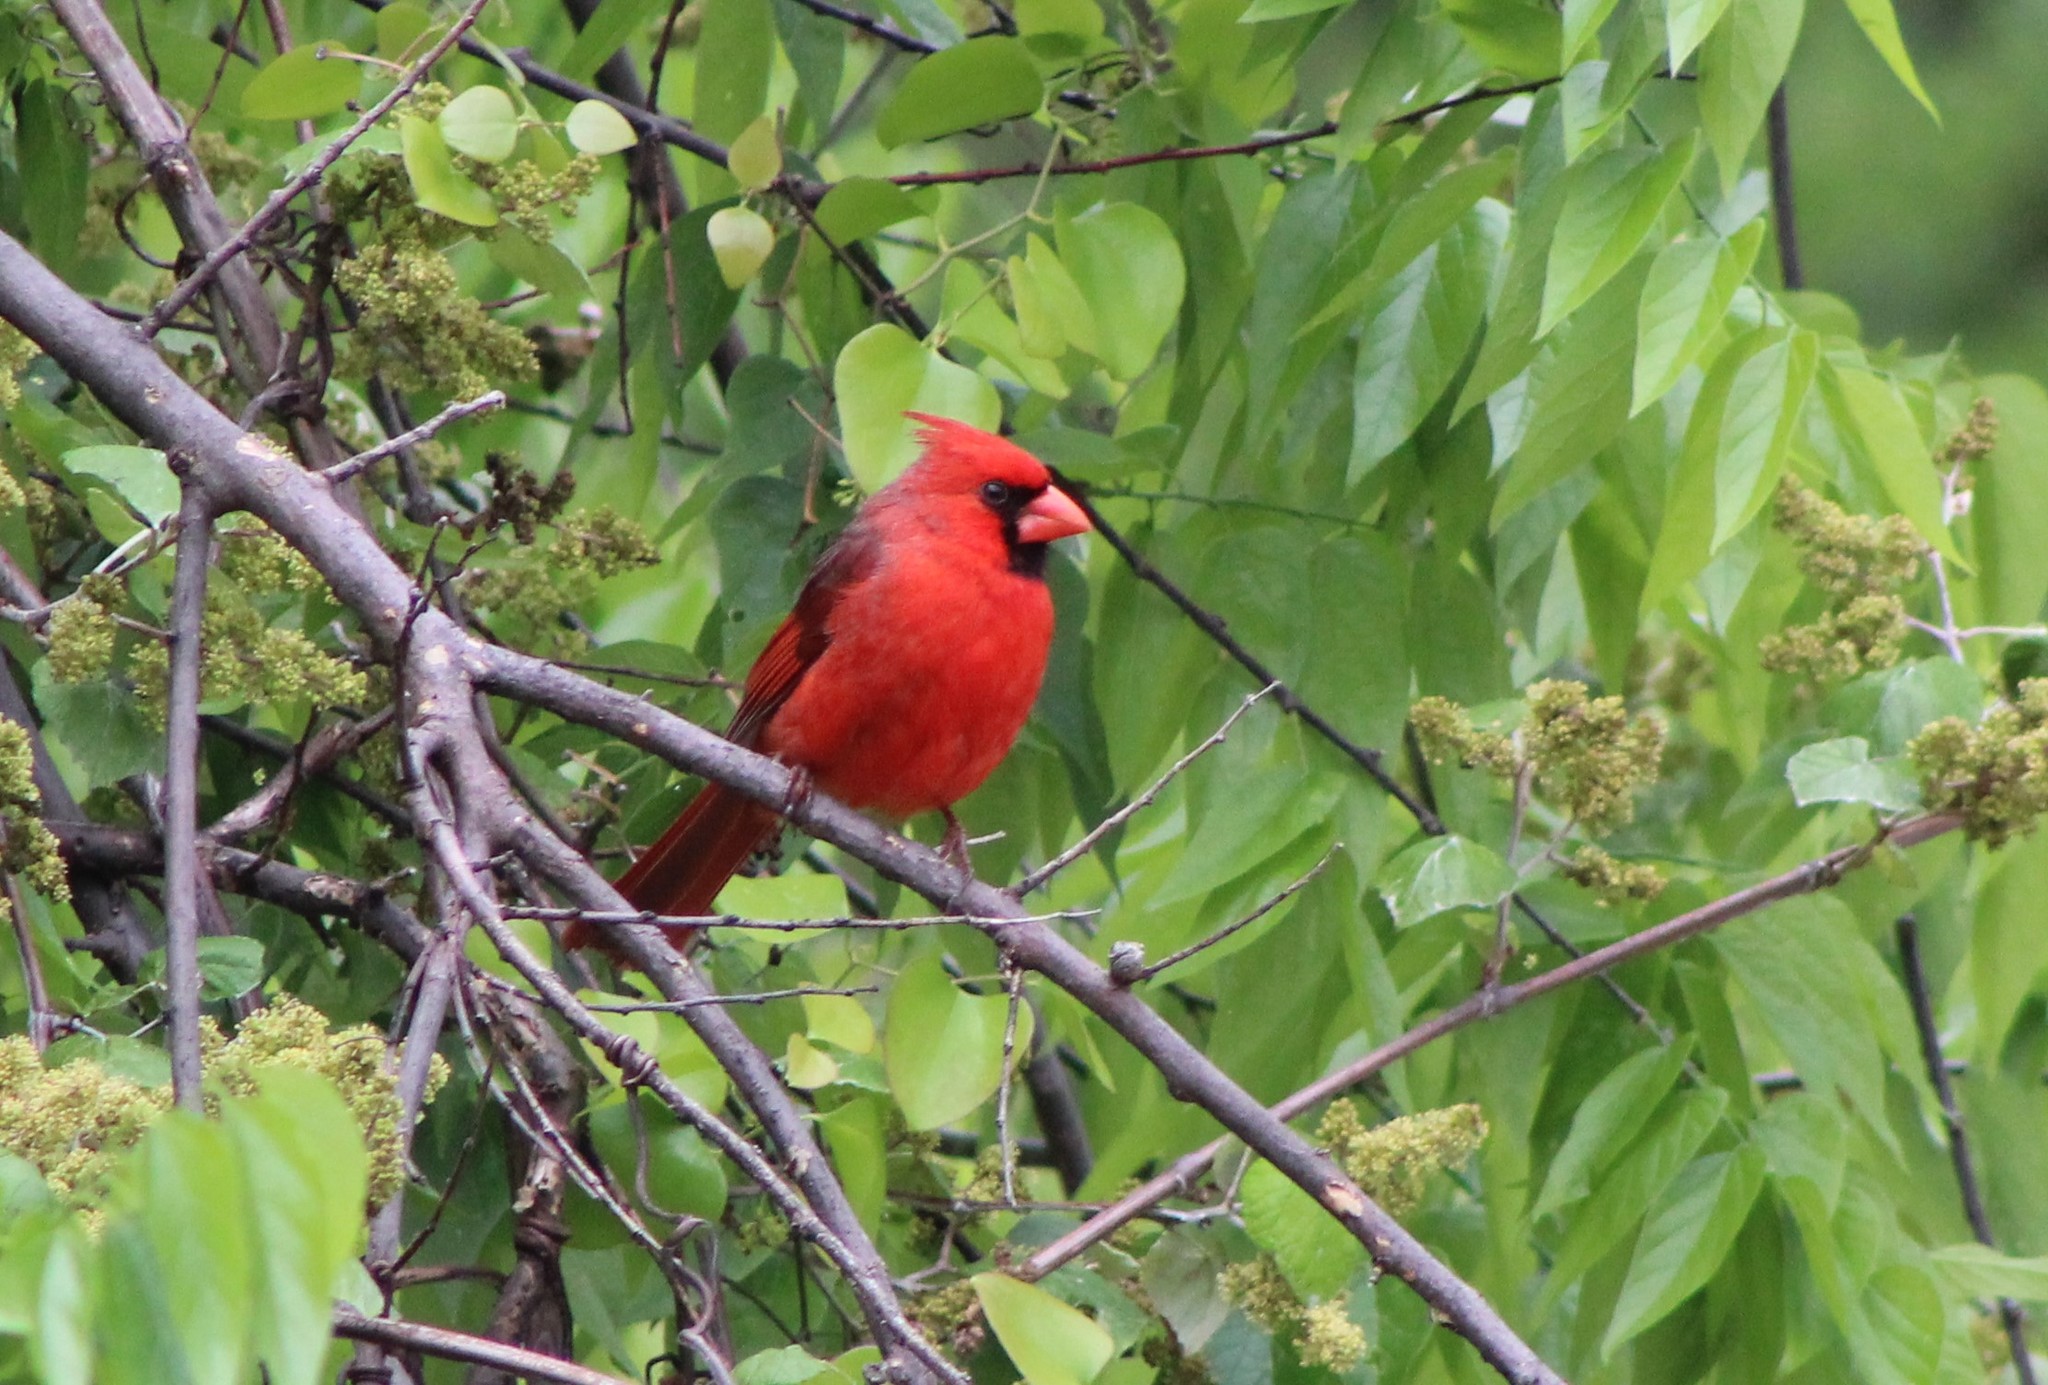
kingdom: Animalia
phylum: Chordata
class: Aves
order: Passeriformes
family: Cardinalidae
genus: Cardinalis
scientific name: Cardinalis cardinalis
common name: Northern cardinal
